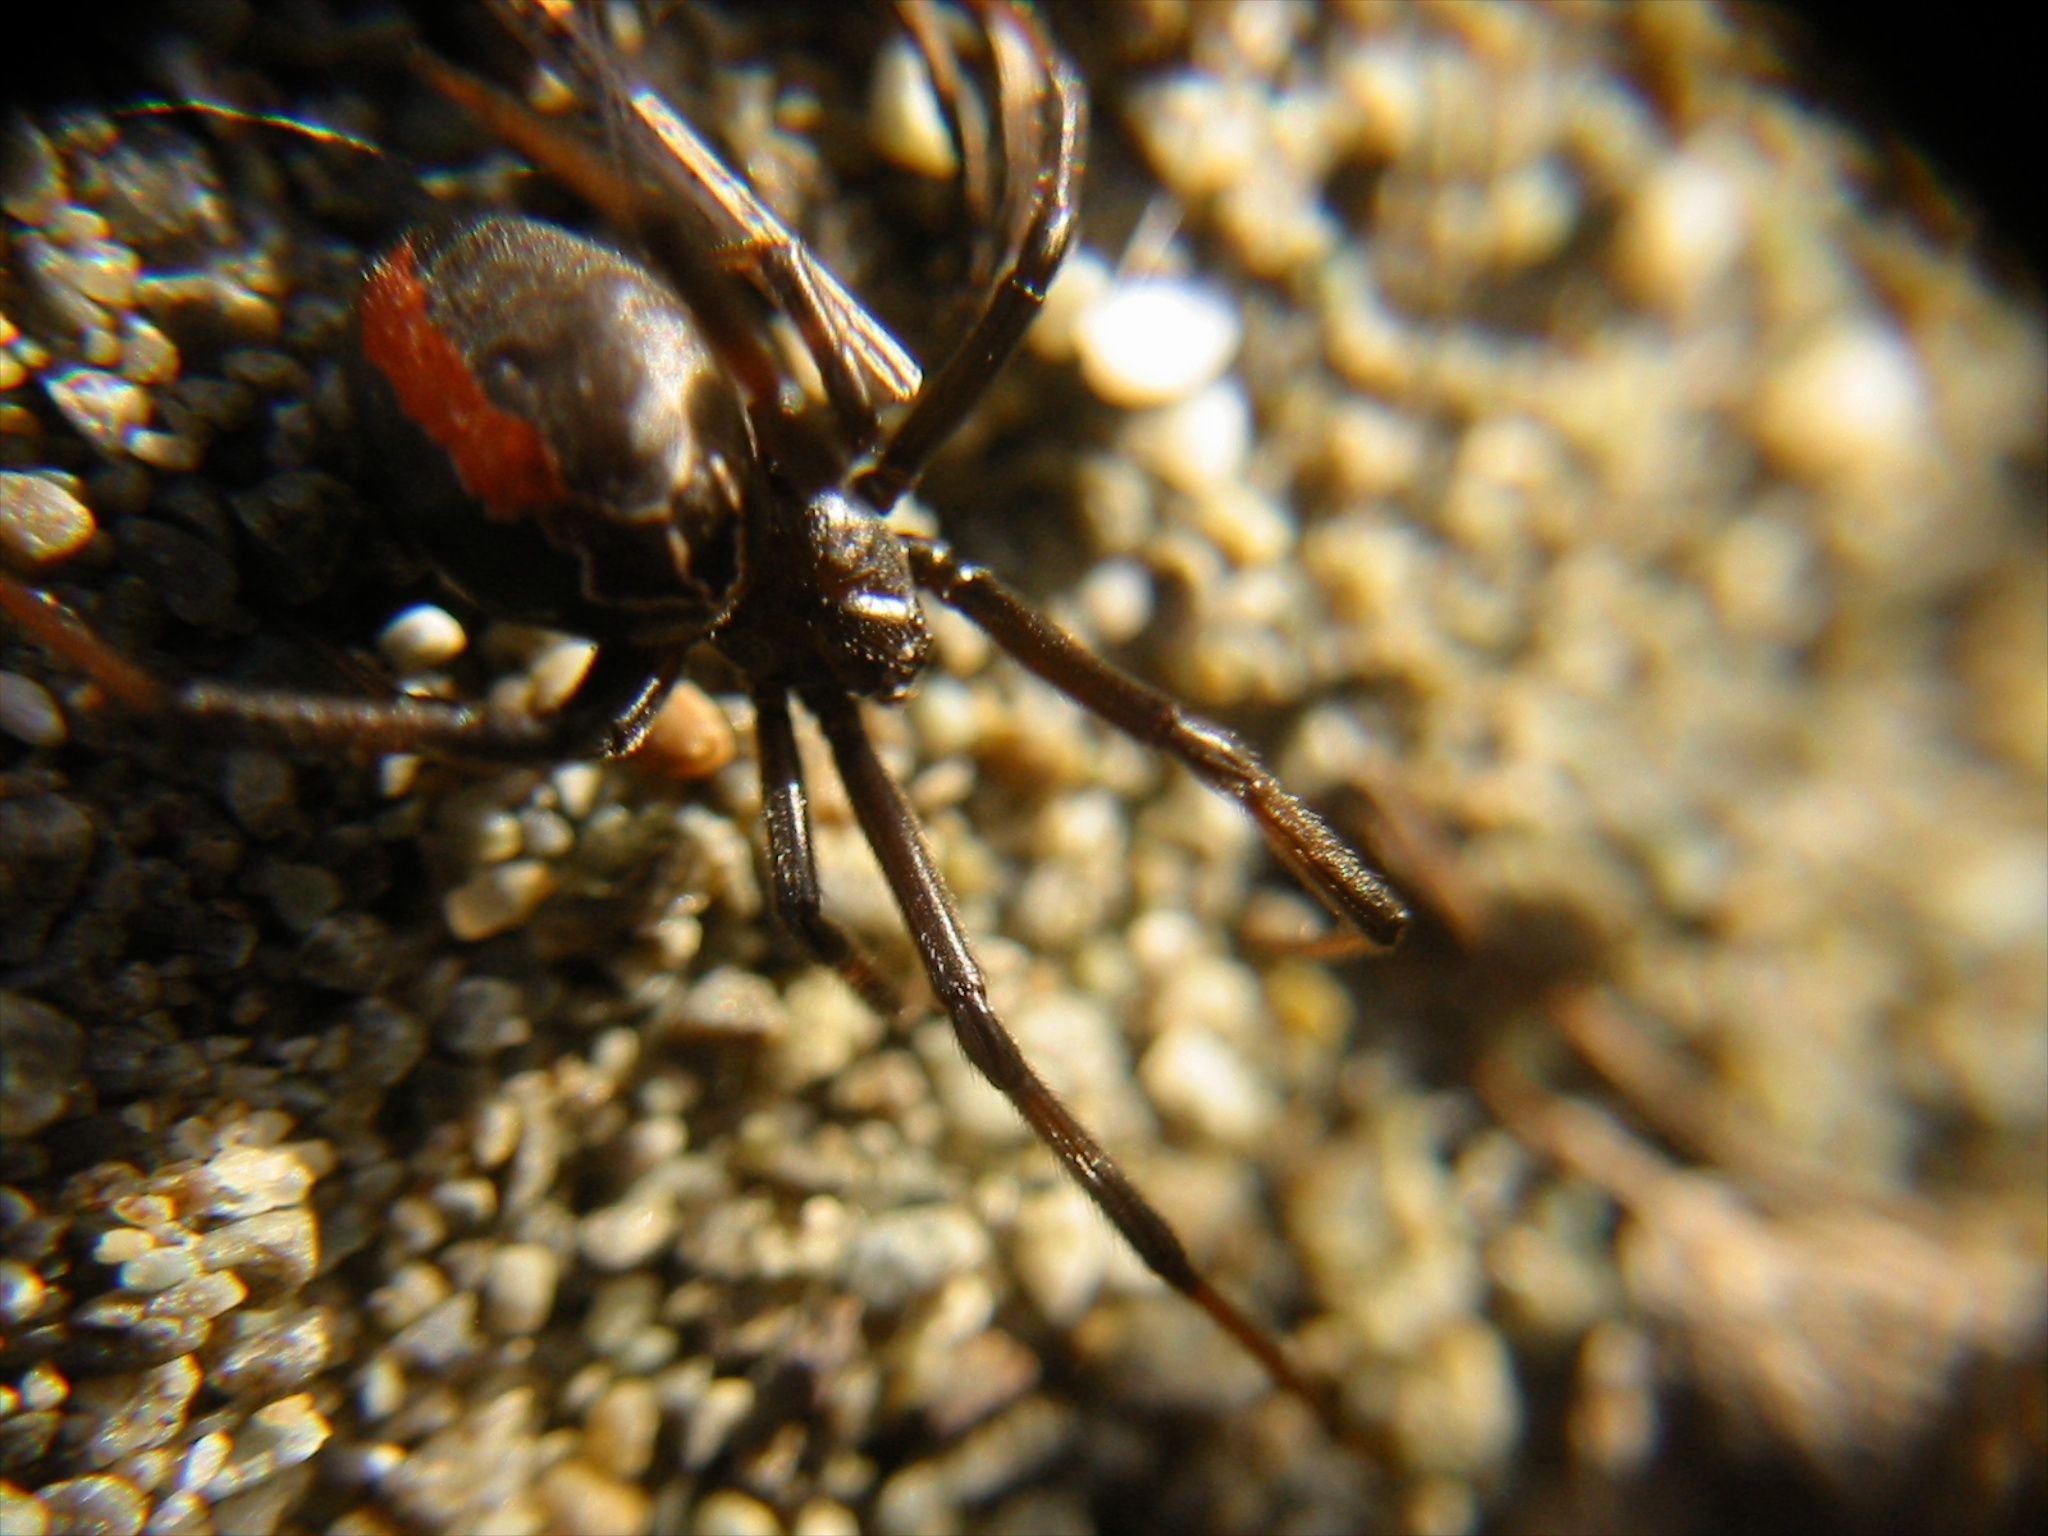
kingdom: Animalia
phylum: Arthropoda
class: Arachnida
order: Araneae
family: Theridiidae
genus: Latrodectus
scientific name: Latrodectus katipo
